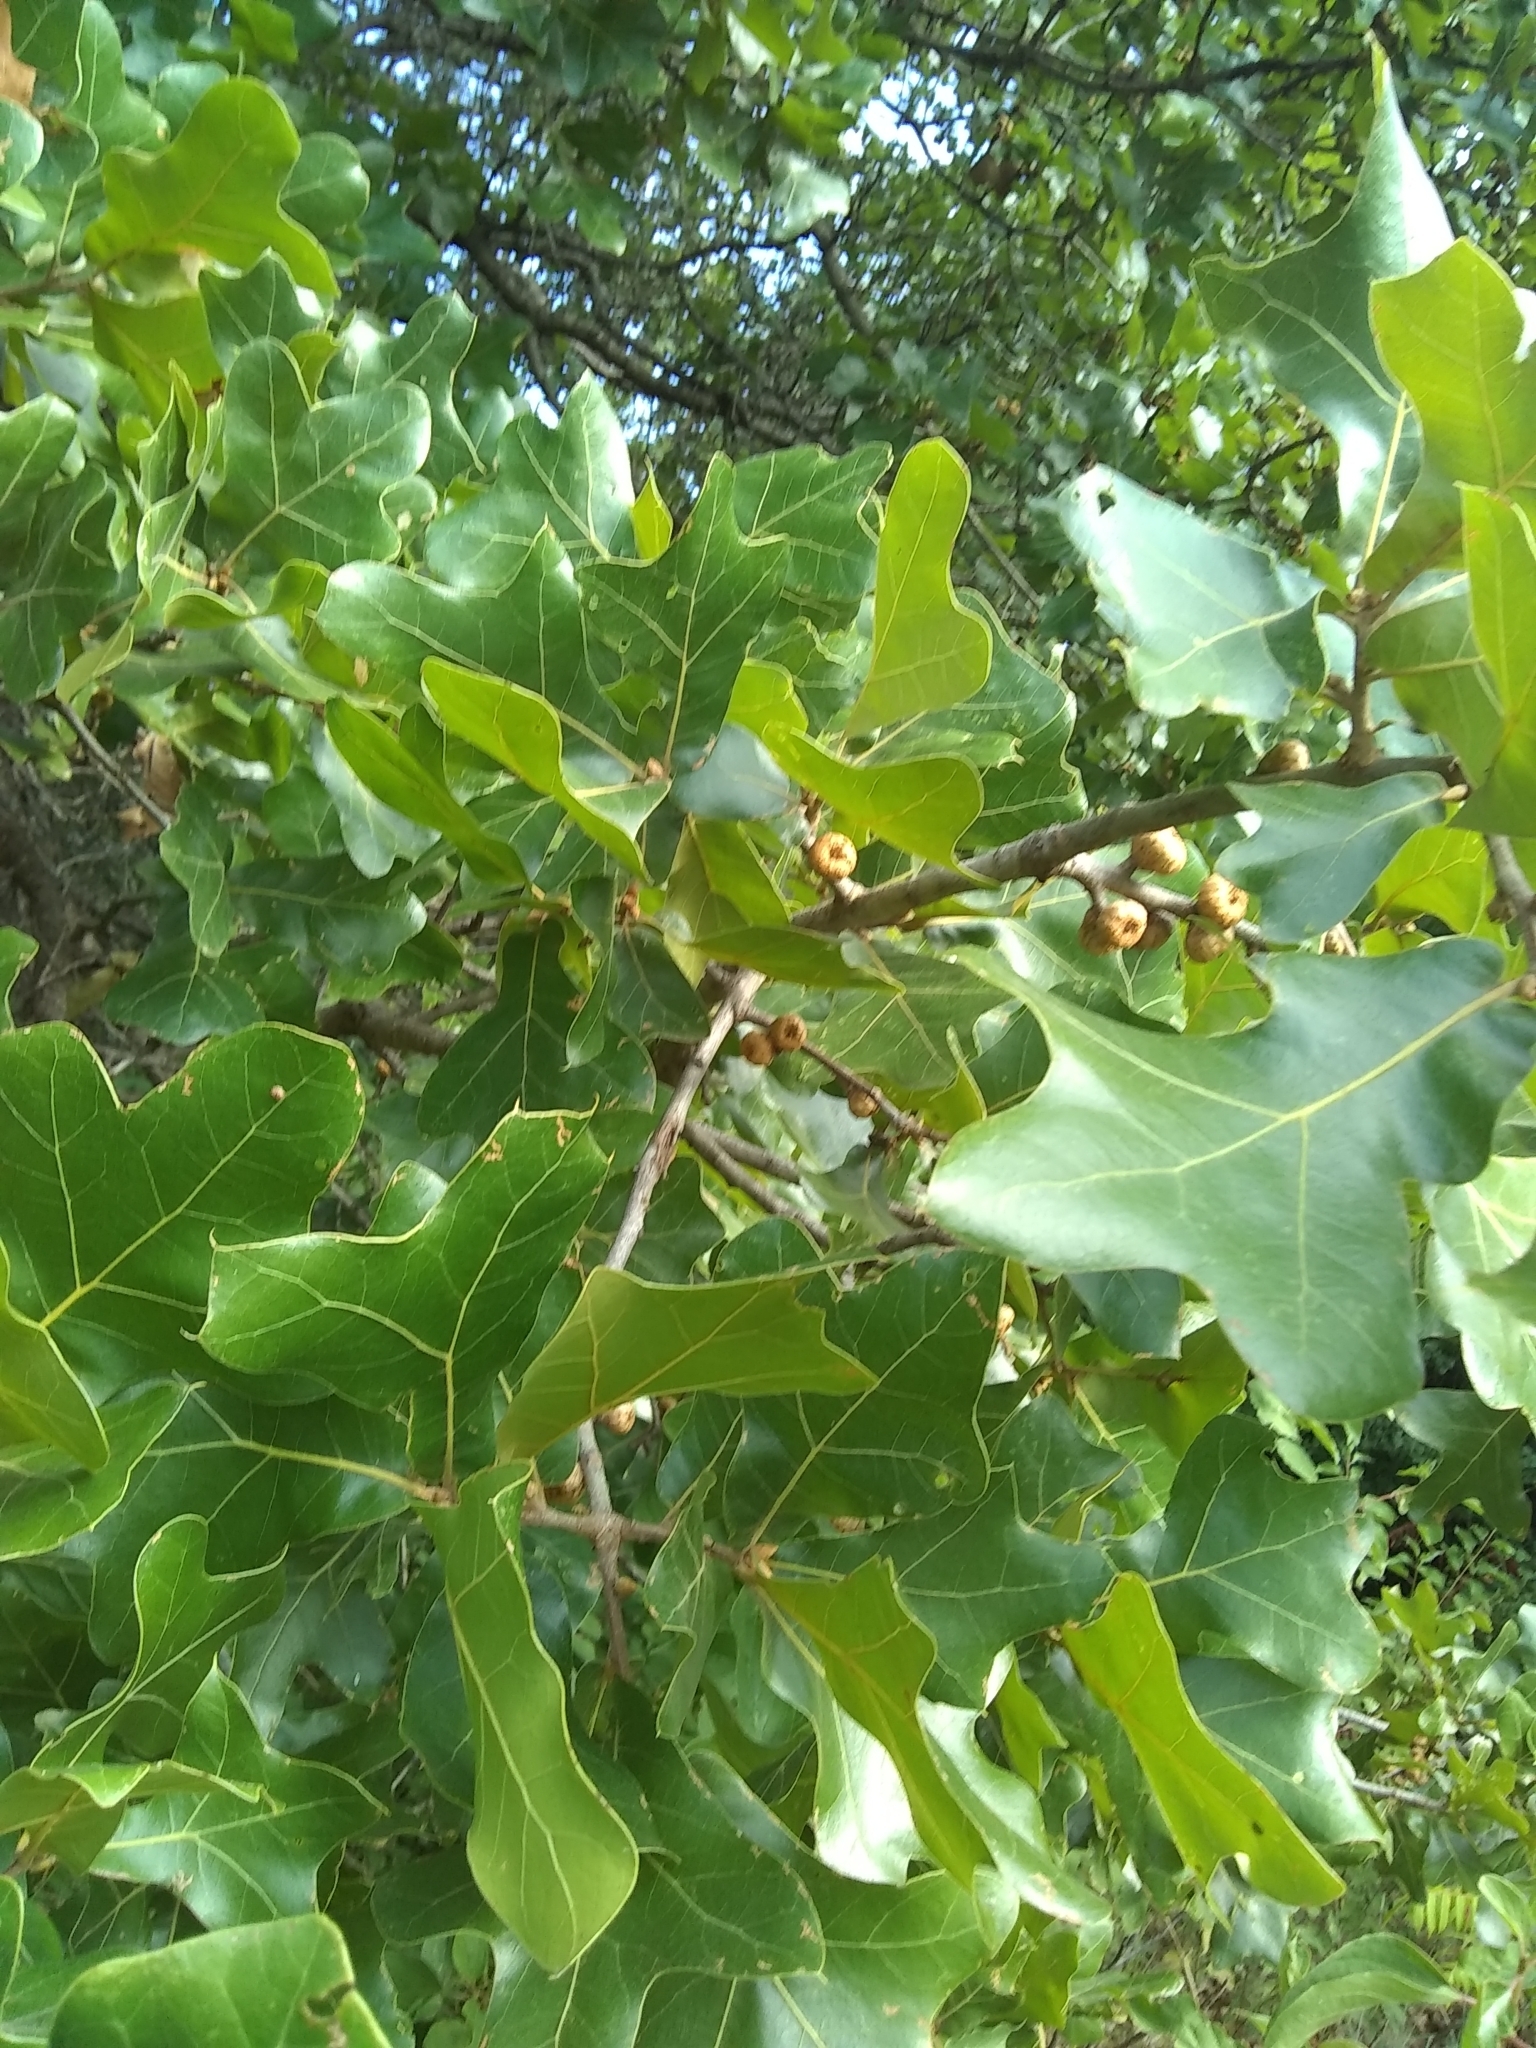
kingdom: Plantae
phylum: Tracheophyta
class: Magnoliopsida
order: Fagales
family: Fagaceae
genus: Quercus
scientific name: Quercus marilandica
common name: Blackjack oak
